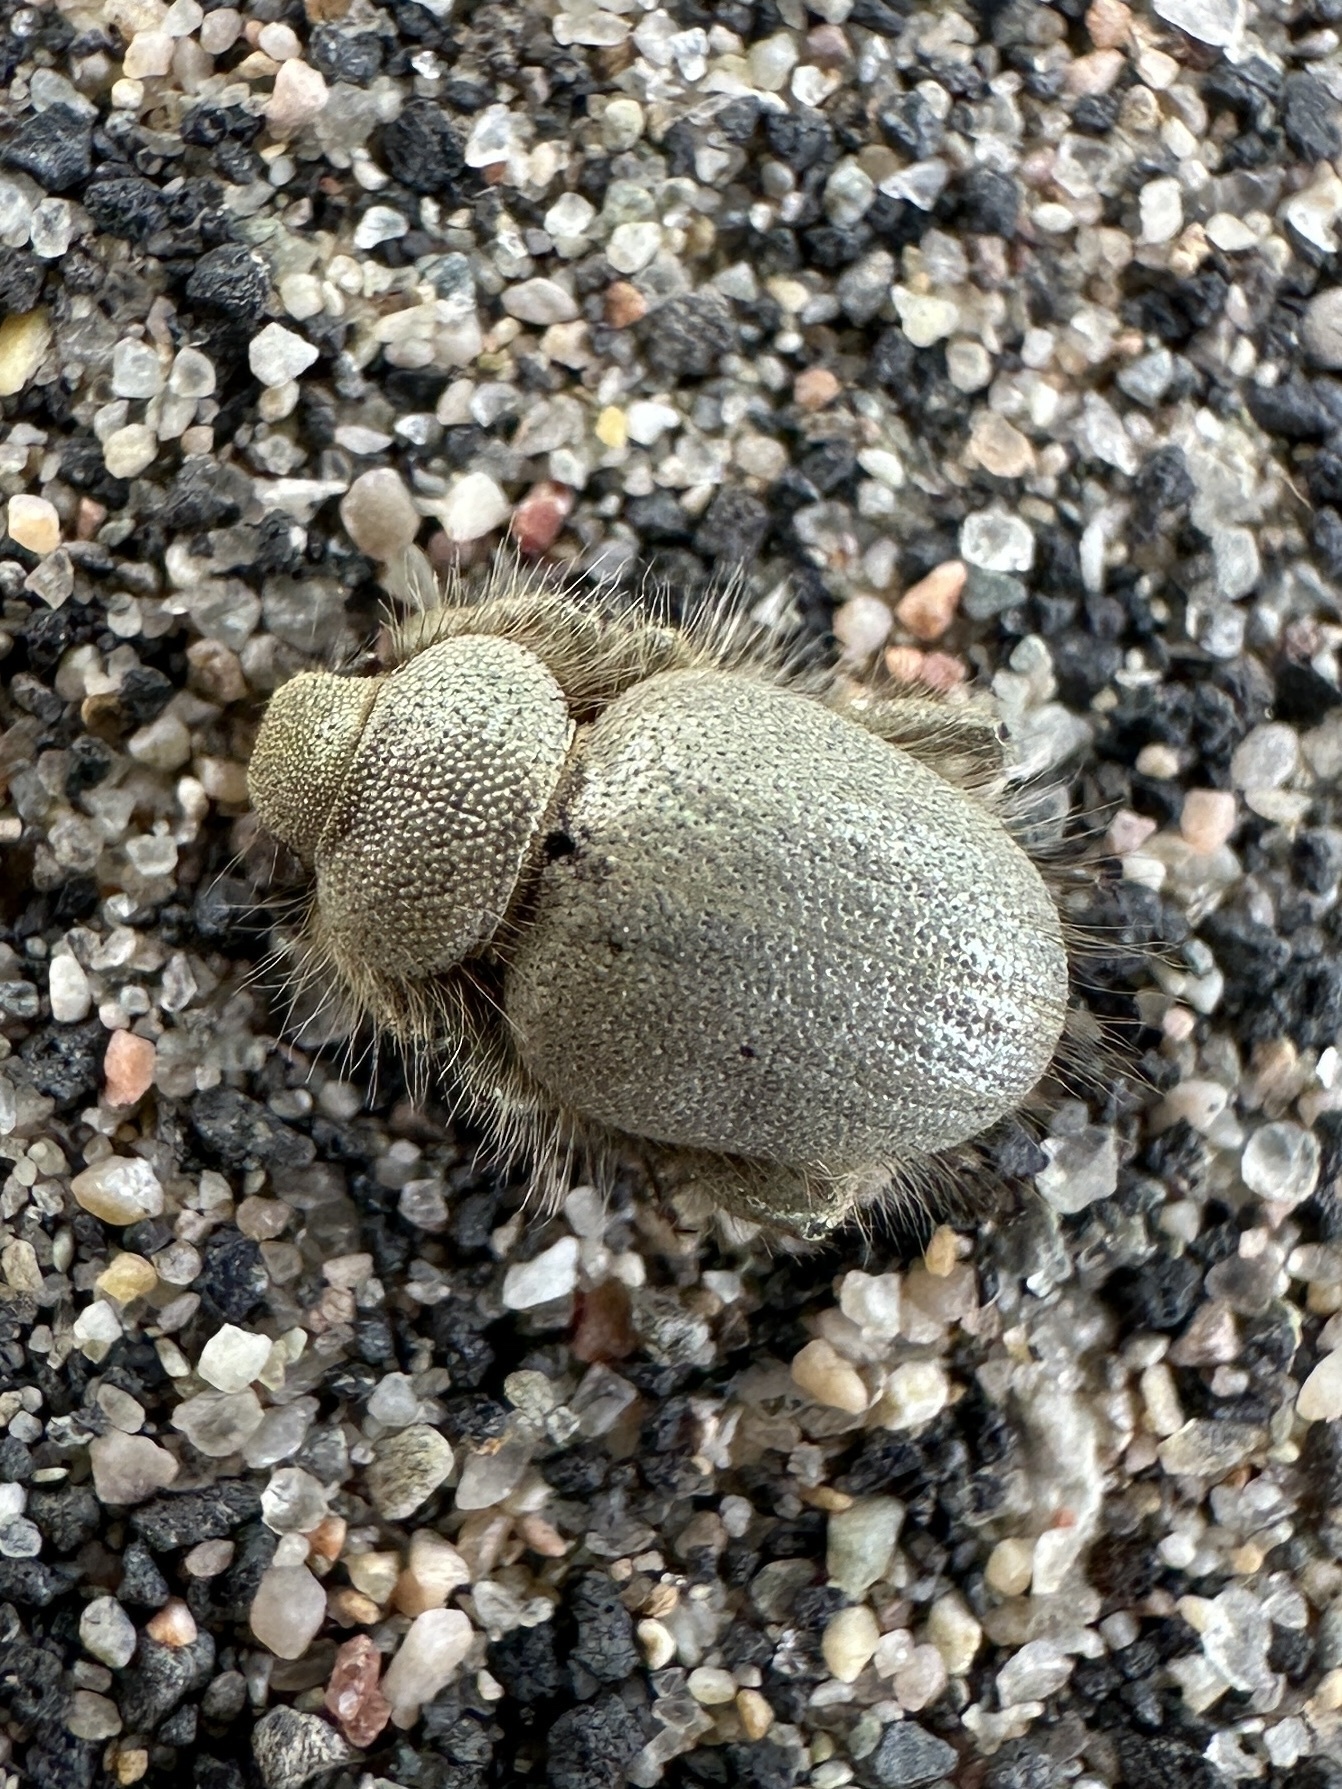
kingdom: Animalia
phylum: Arthropoda
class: Insecta
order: Coleoptera
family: Curculionidae
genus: Miloderes
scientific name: Miloderes nelsoni
